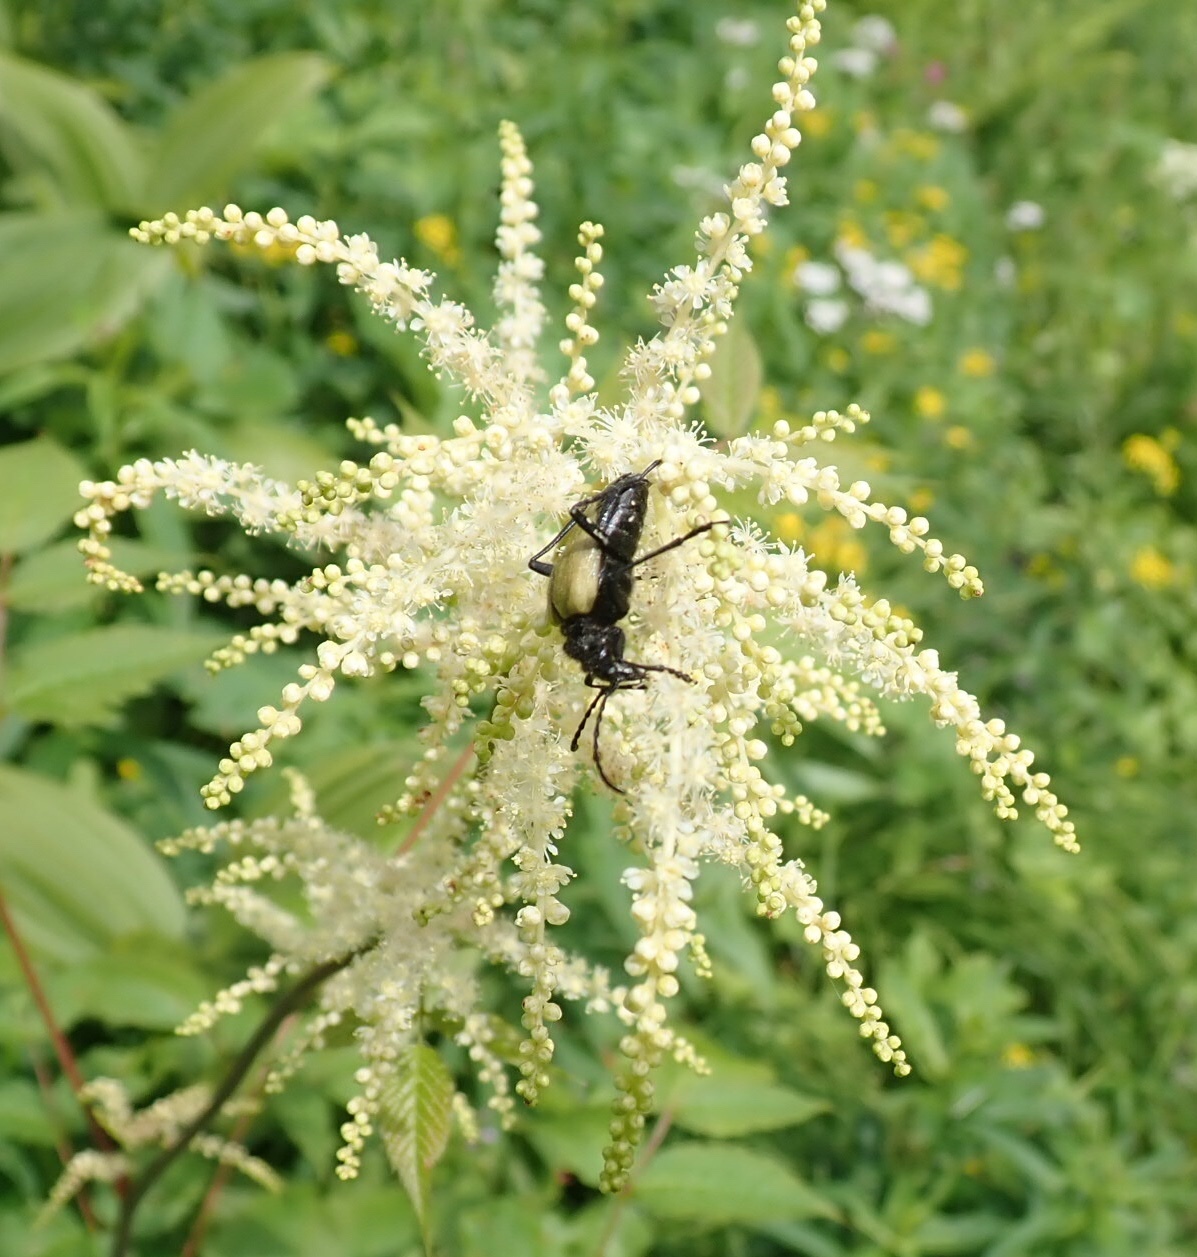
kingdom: Plantae
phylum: Tracheophyta
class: Magnoliopsida
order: Rosales
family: Rosaceae
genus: Aruncus
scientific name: Aruncus dioicus
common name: Buck's-beard
